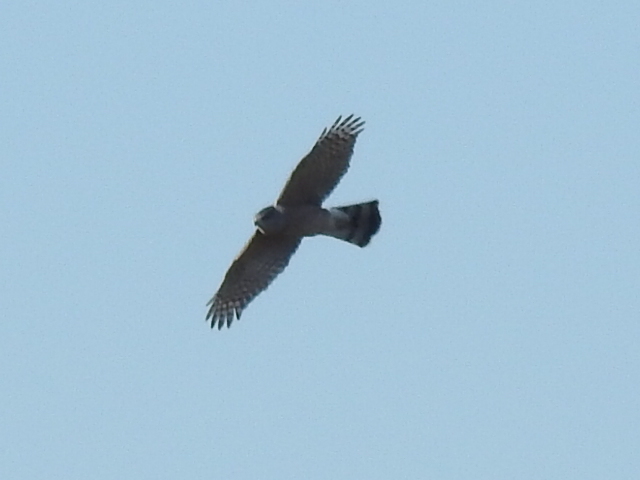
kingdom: Animalia
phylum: Chordata
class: Aves
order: Accipitriformes
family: Accipitridae
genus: Accipiter
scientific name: Accipiter cooperii
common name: Cooper's hawk
